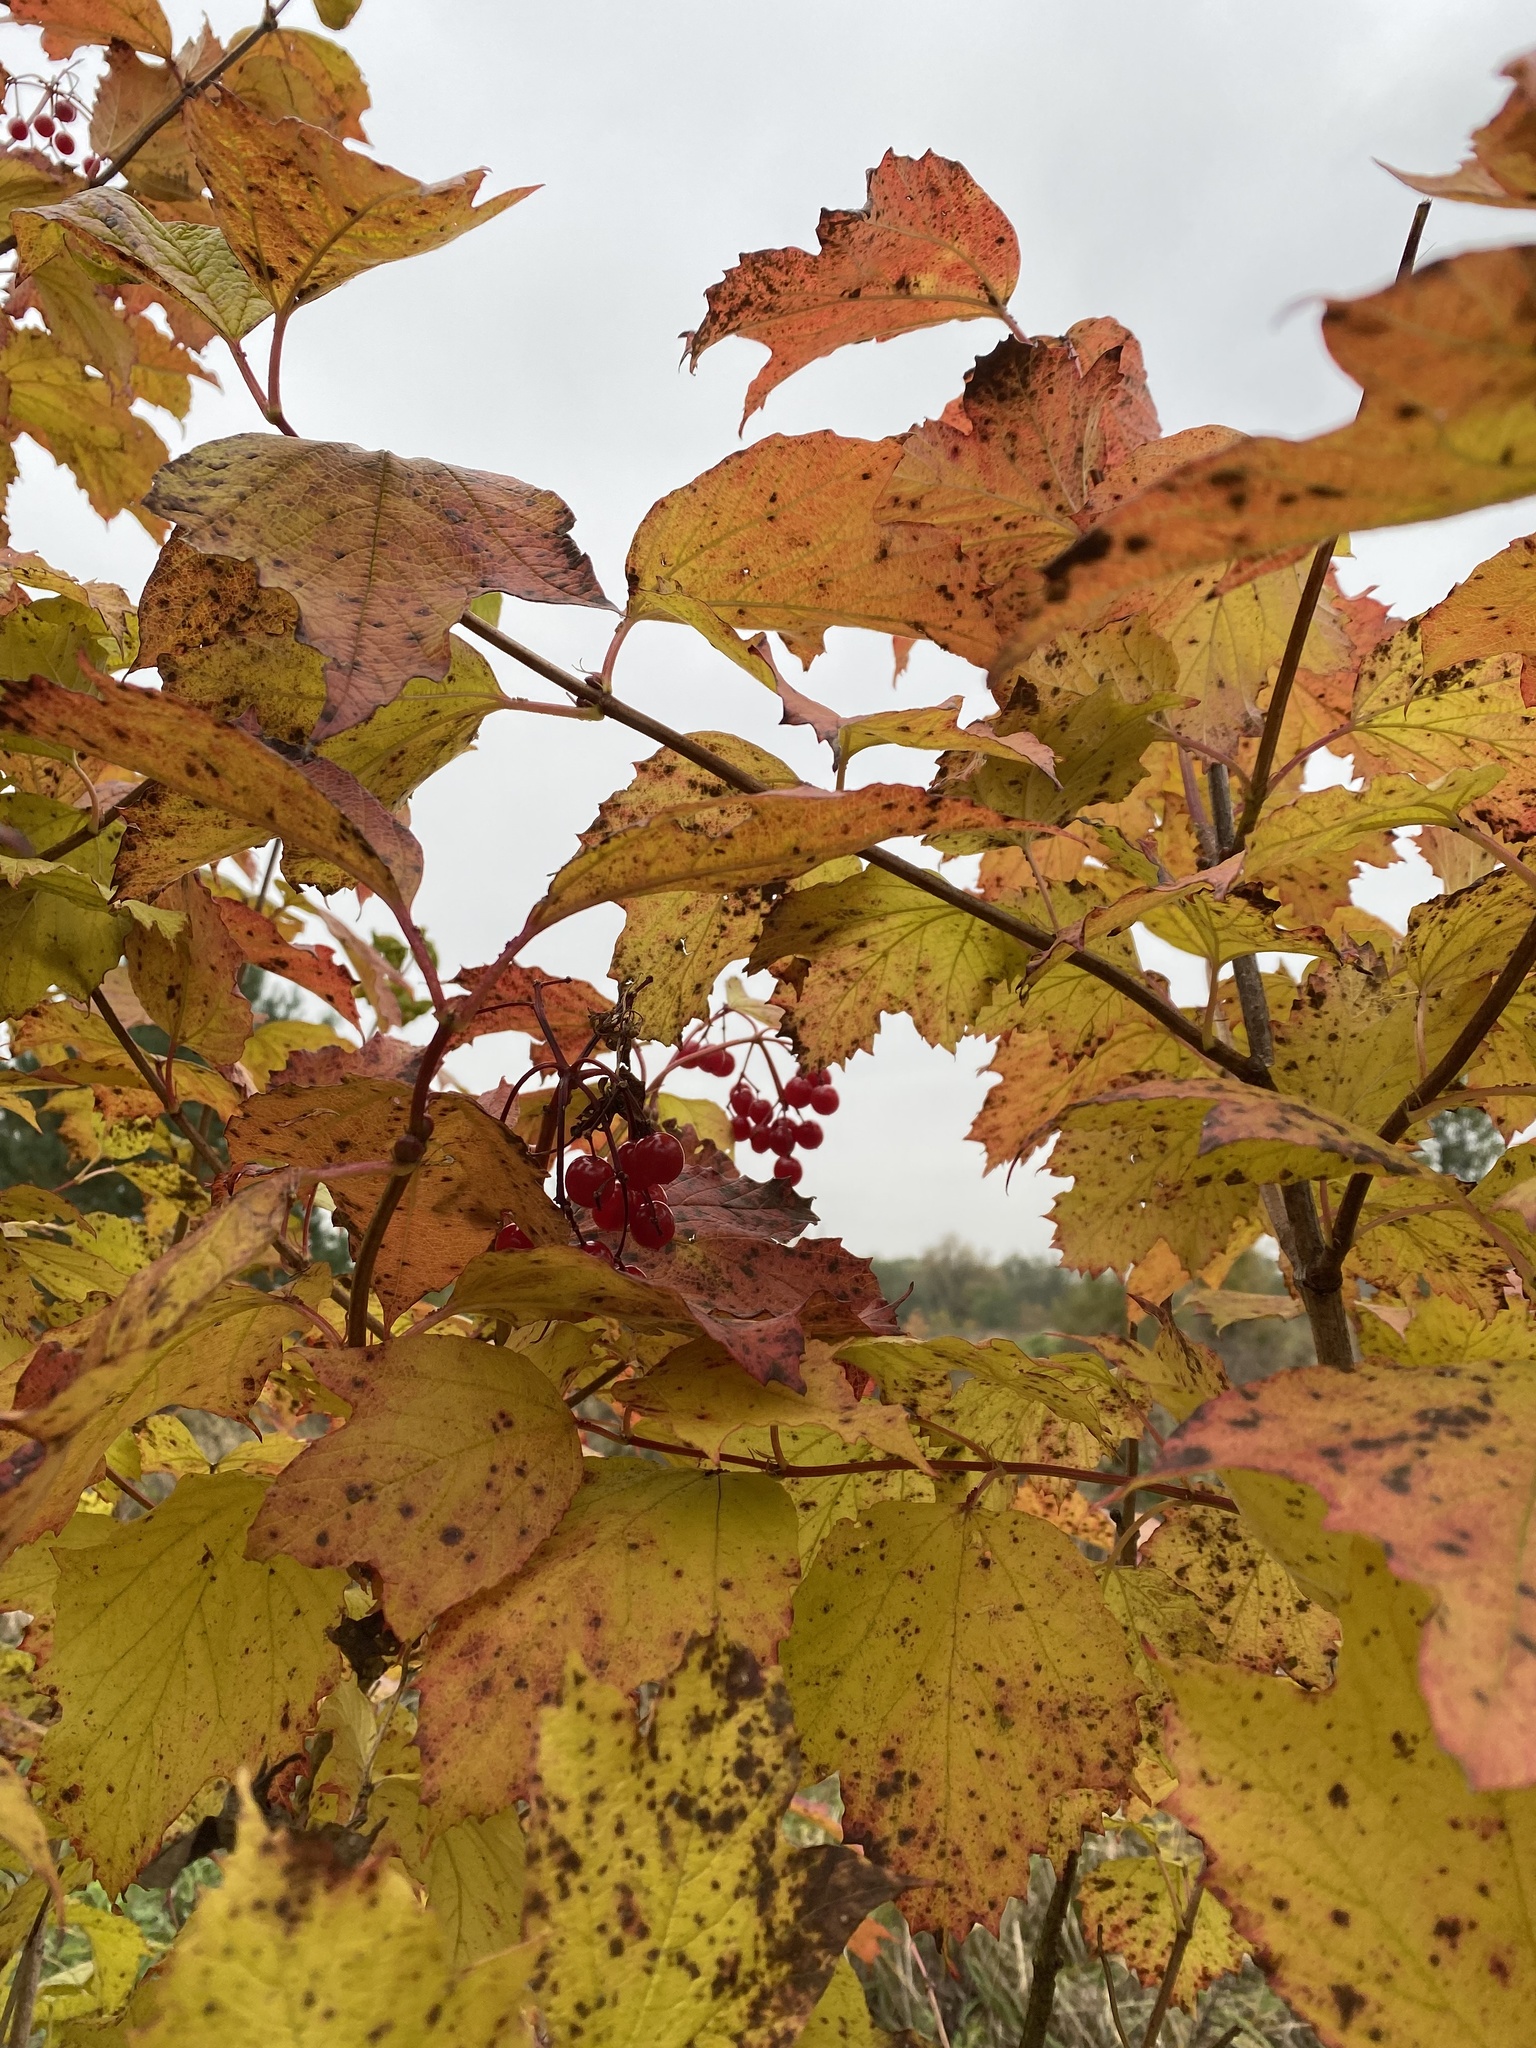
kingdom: Plantae
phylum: Tracheophyta
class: Magnoliopsida
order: Dipsacales
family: Viburnaceae
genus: Viburnum
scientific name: Viburnum opulus
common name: Guelder-rose
